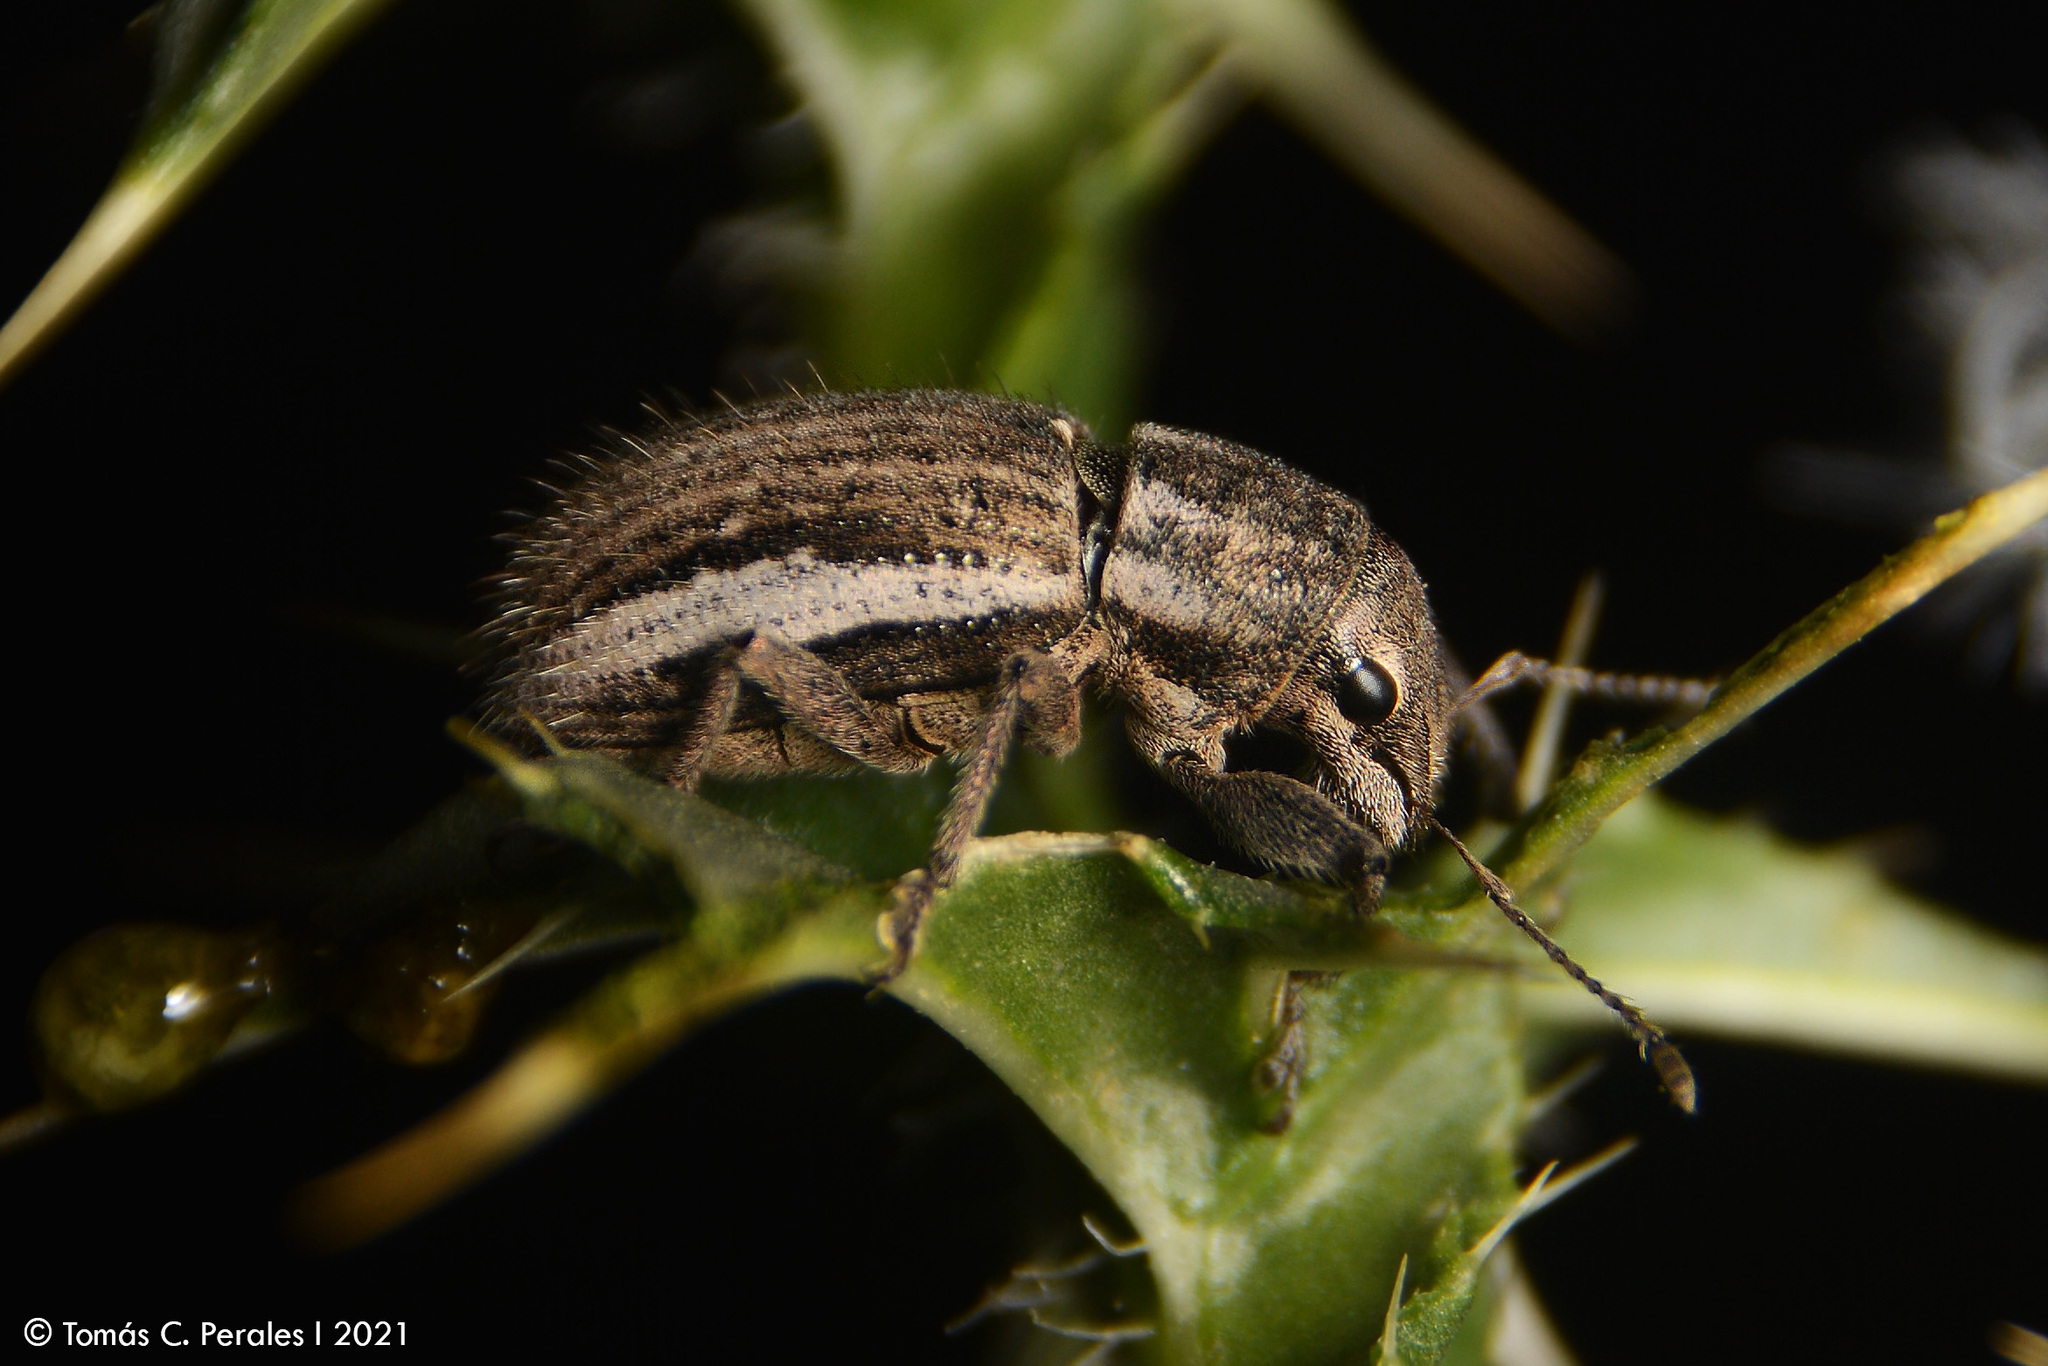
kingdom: Animalia
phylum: Arthropoda
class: Insecta
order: Coleoptera
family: Curculionidae
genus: Naupactus
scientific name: Naupactus leucoloma
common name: Whitefringed beetle
